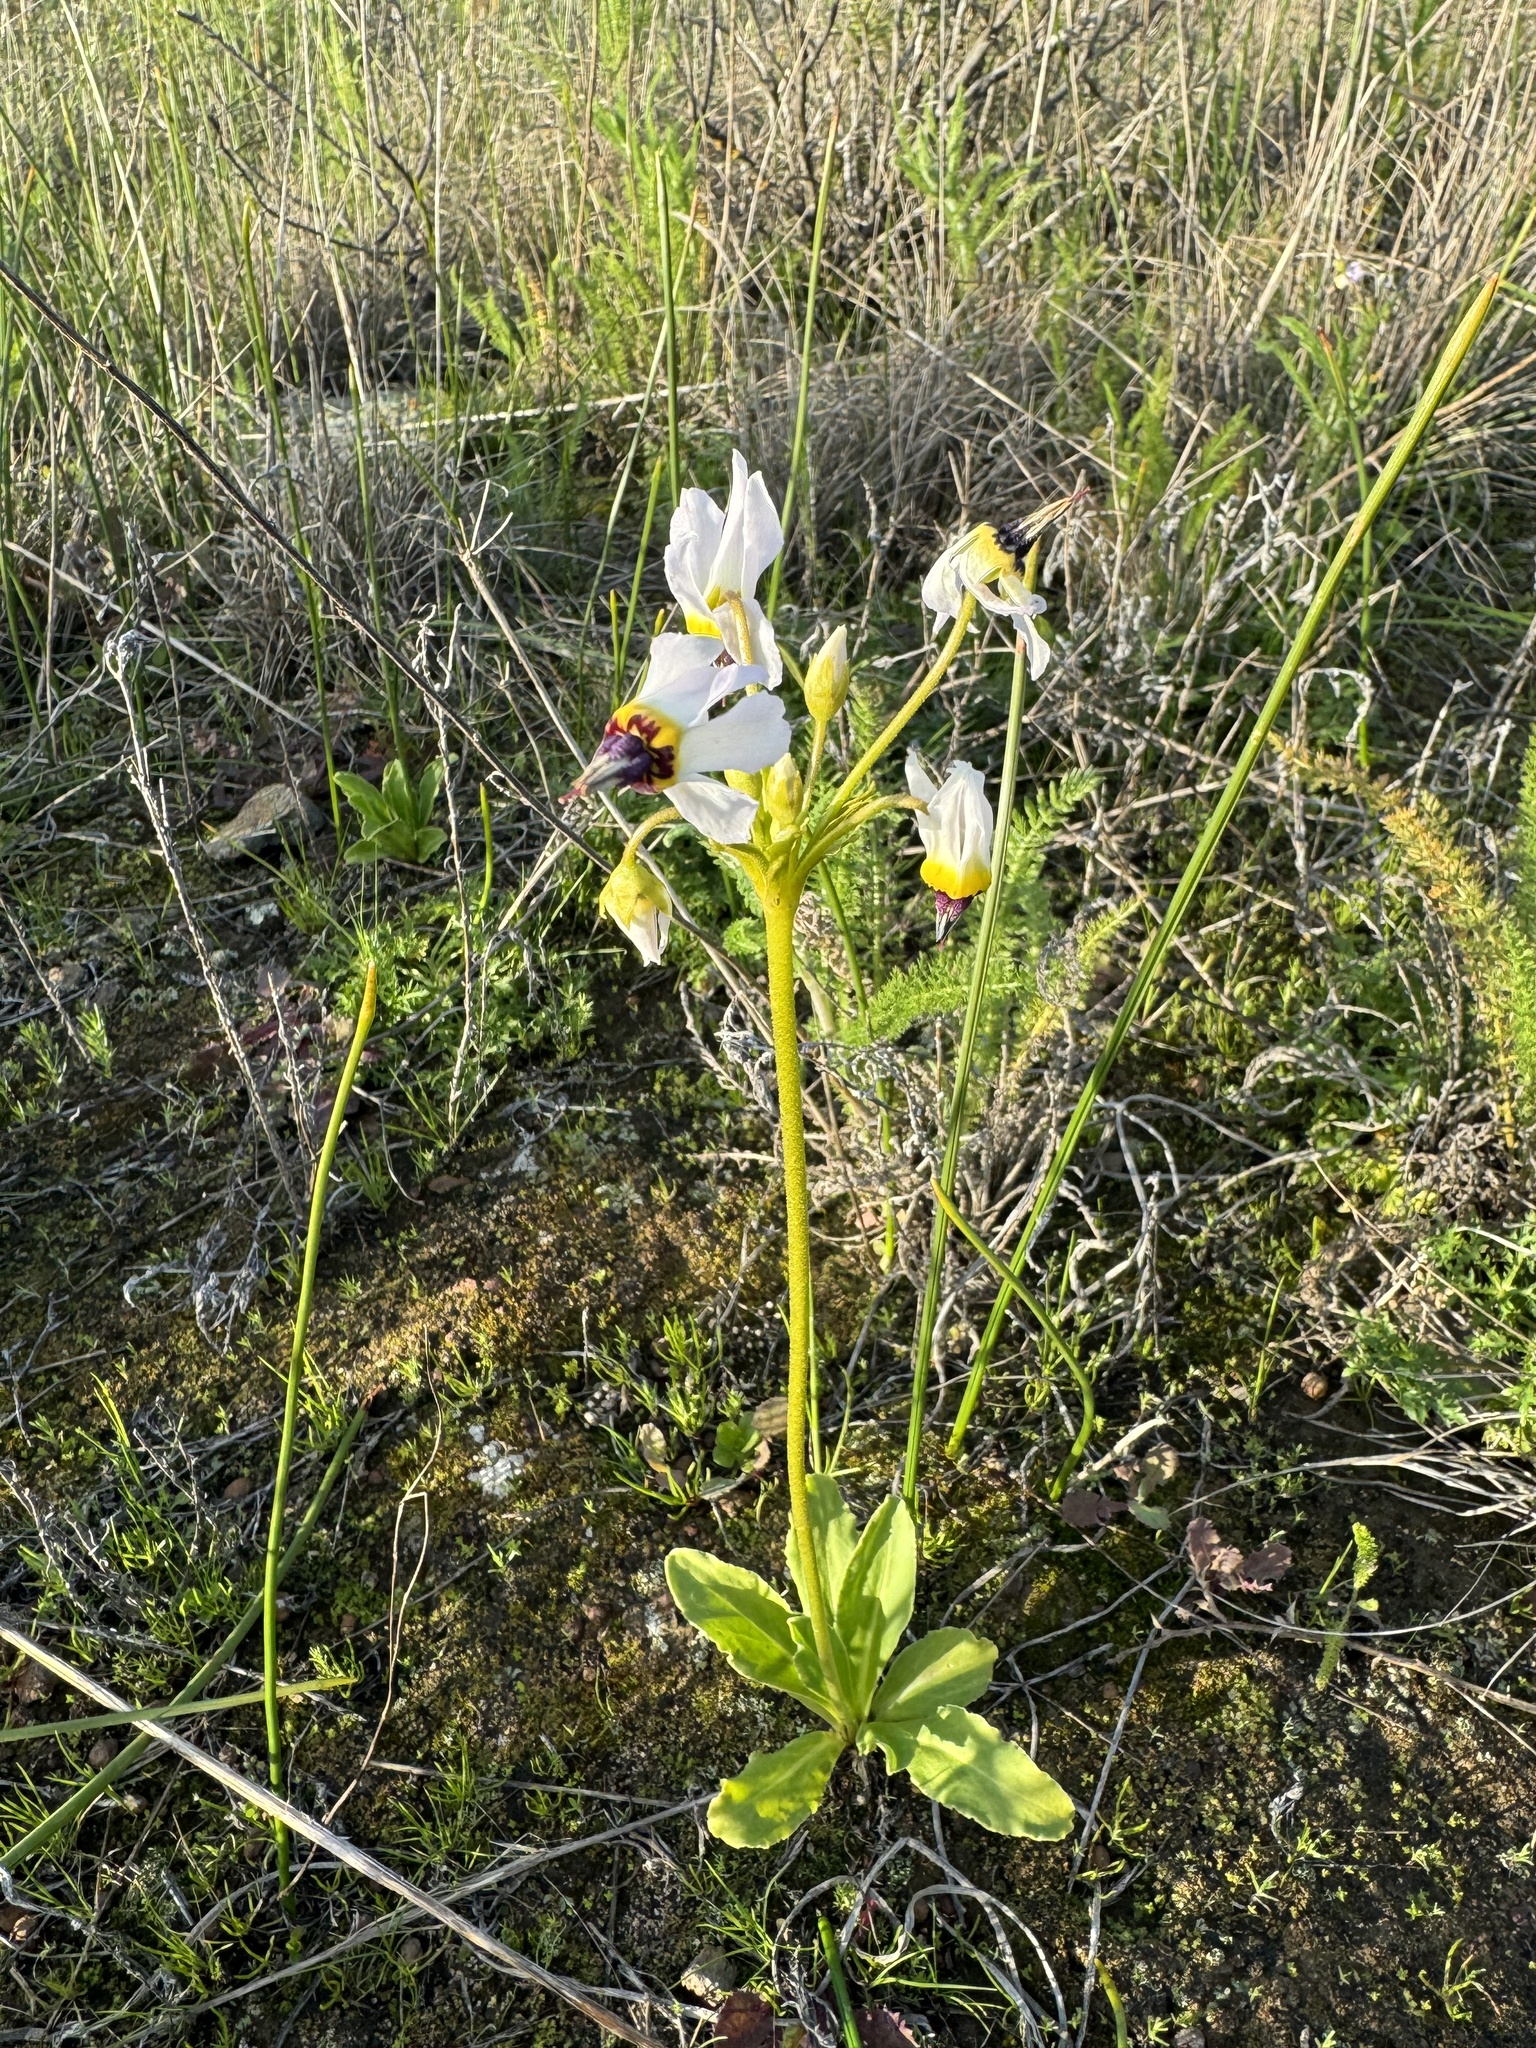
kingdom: Plantae
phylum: Tracheophyta
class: Magnoliopsida
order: Ericales
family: Primulaceae
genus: Dodecatheon
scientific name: Dodecatheon clevelandii
